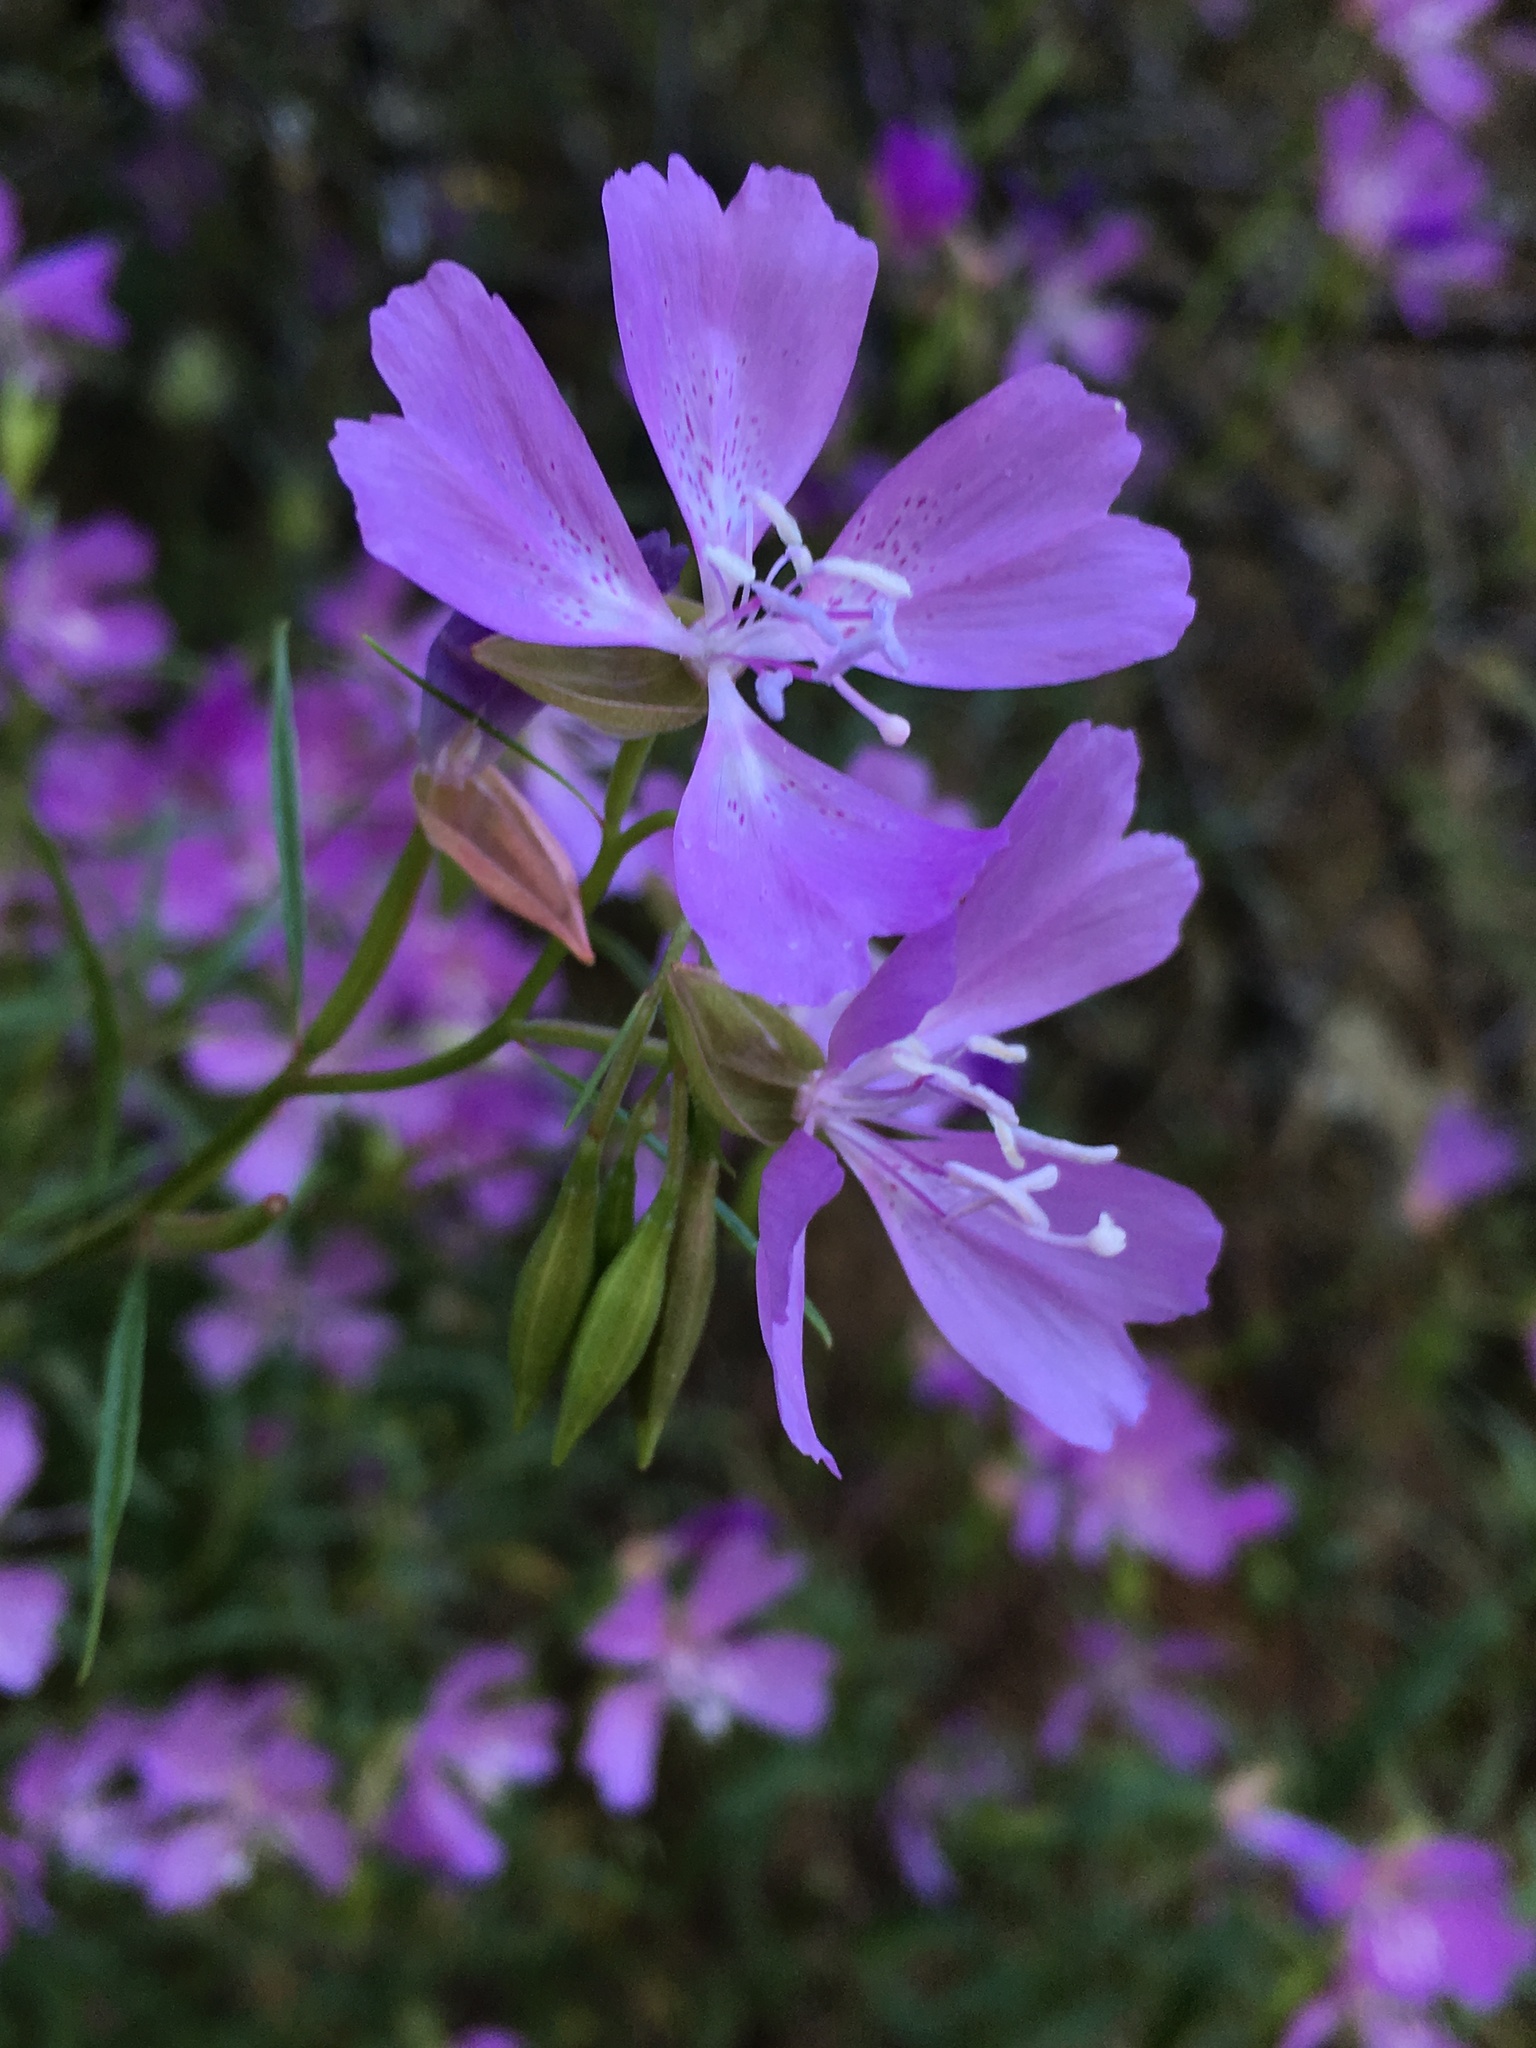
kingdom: Plantae
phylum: Tracheophyta
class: Magnoliopsida
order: Myrtales
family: Onagraceae
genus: Clarkia
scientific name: Clarkia biloba
